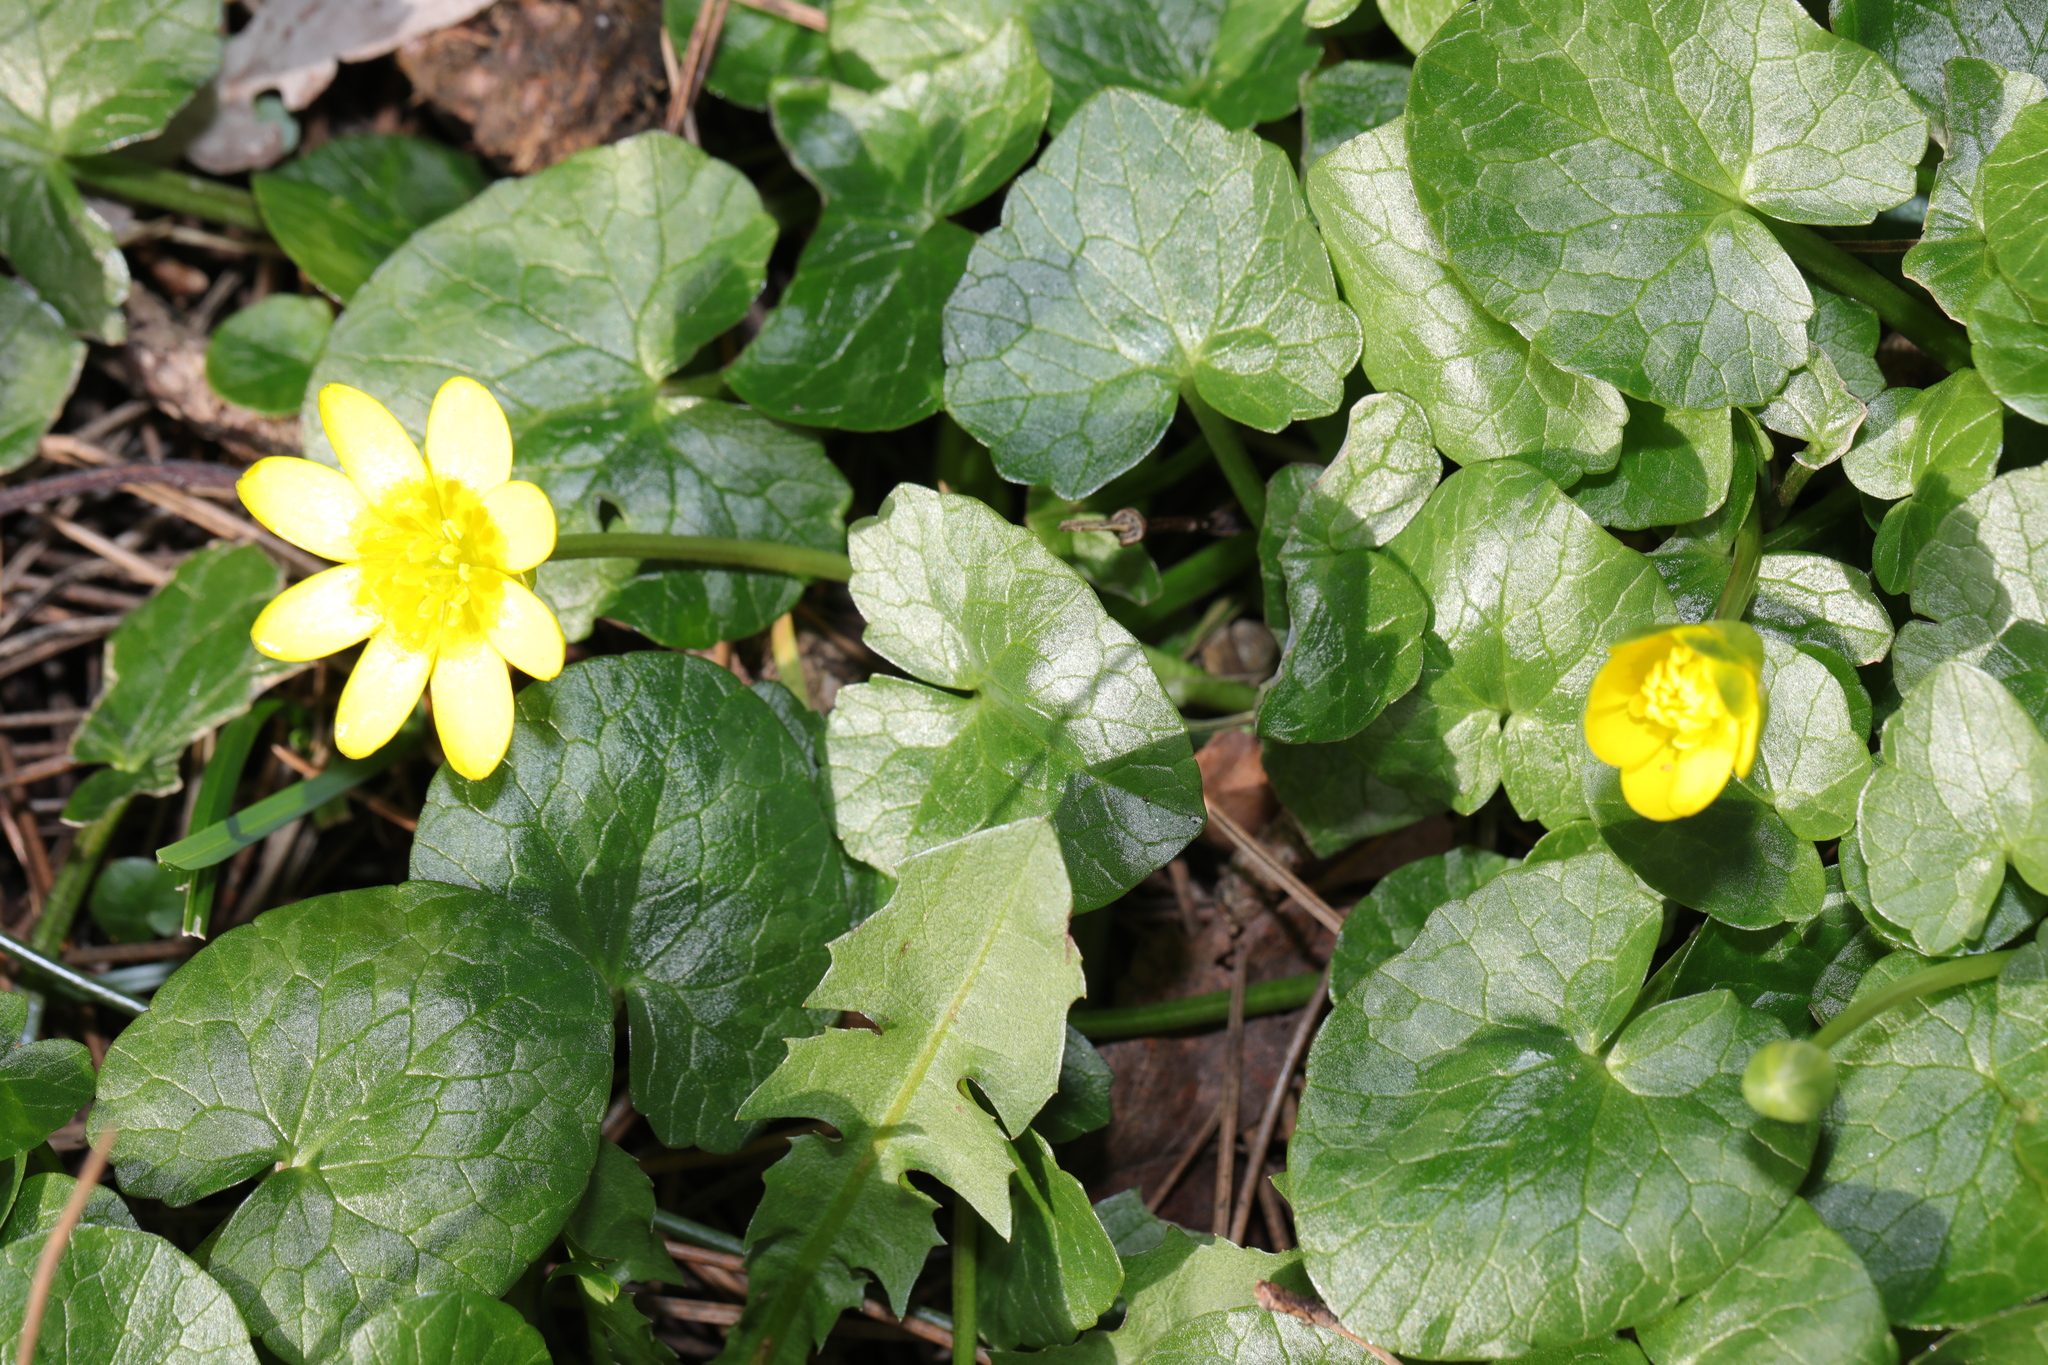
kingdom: Plantae
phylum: Tracheophyta
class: Magnoliopsida
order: Ranunculales
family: Ranunculaceae
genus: Ficaria
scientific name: Ficaria verna
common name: Lesser celandine
